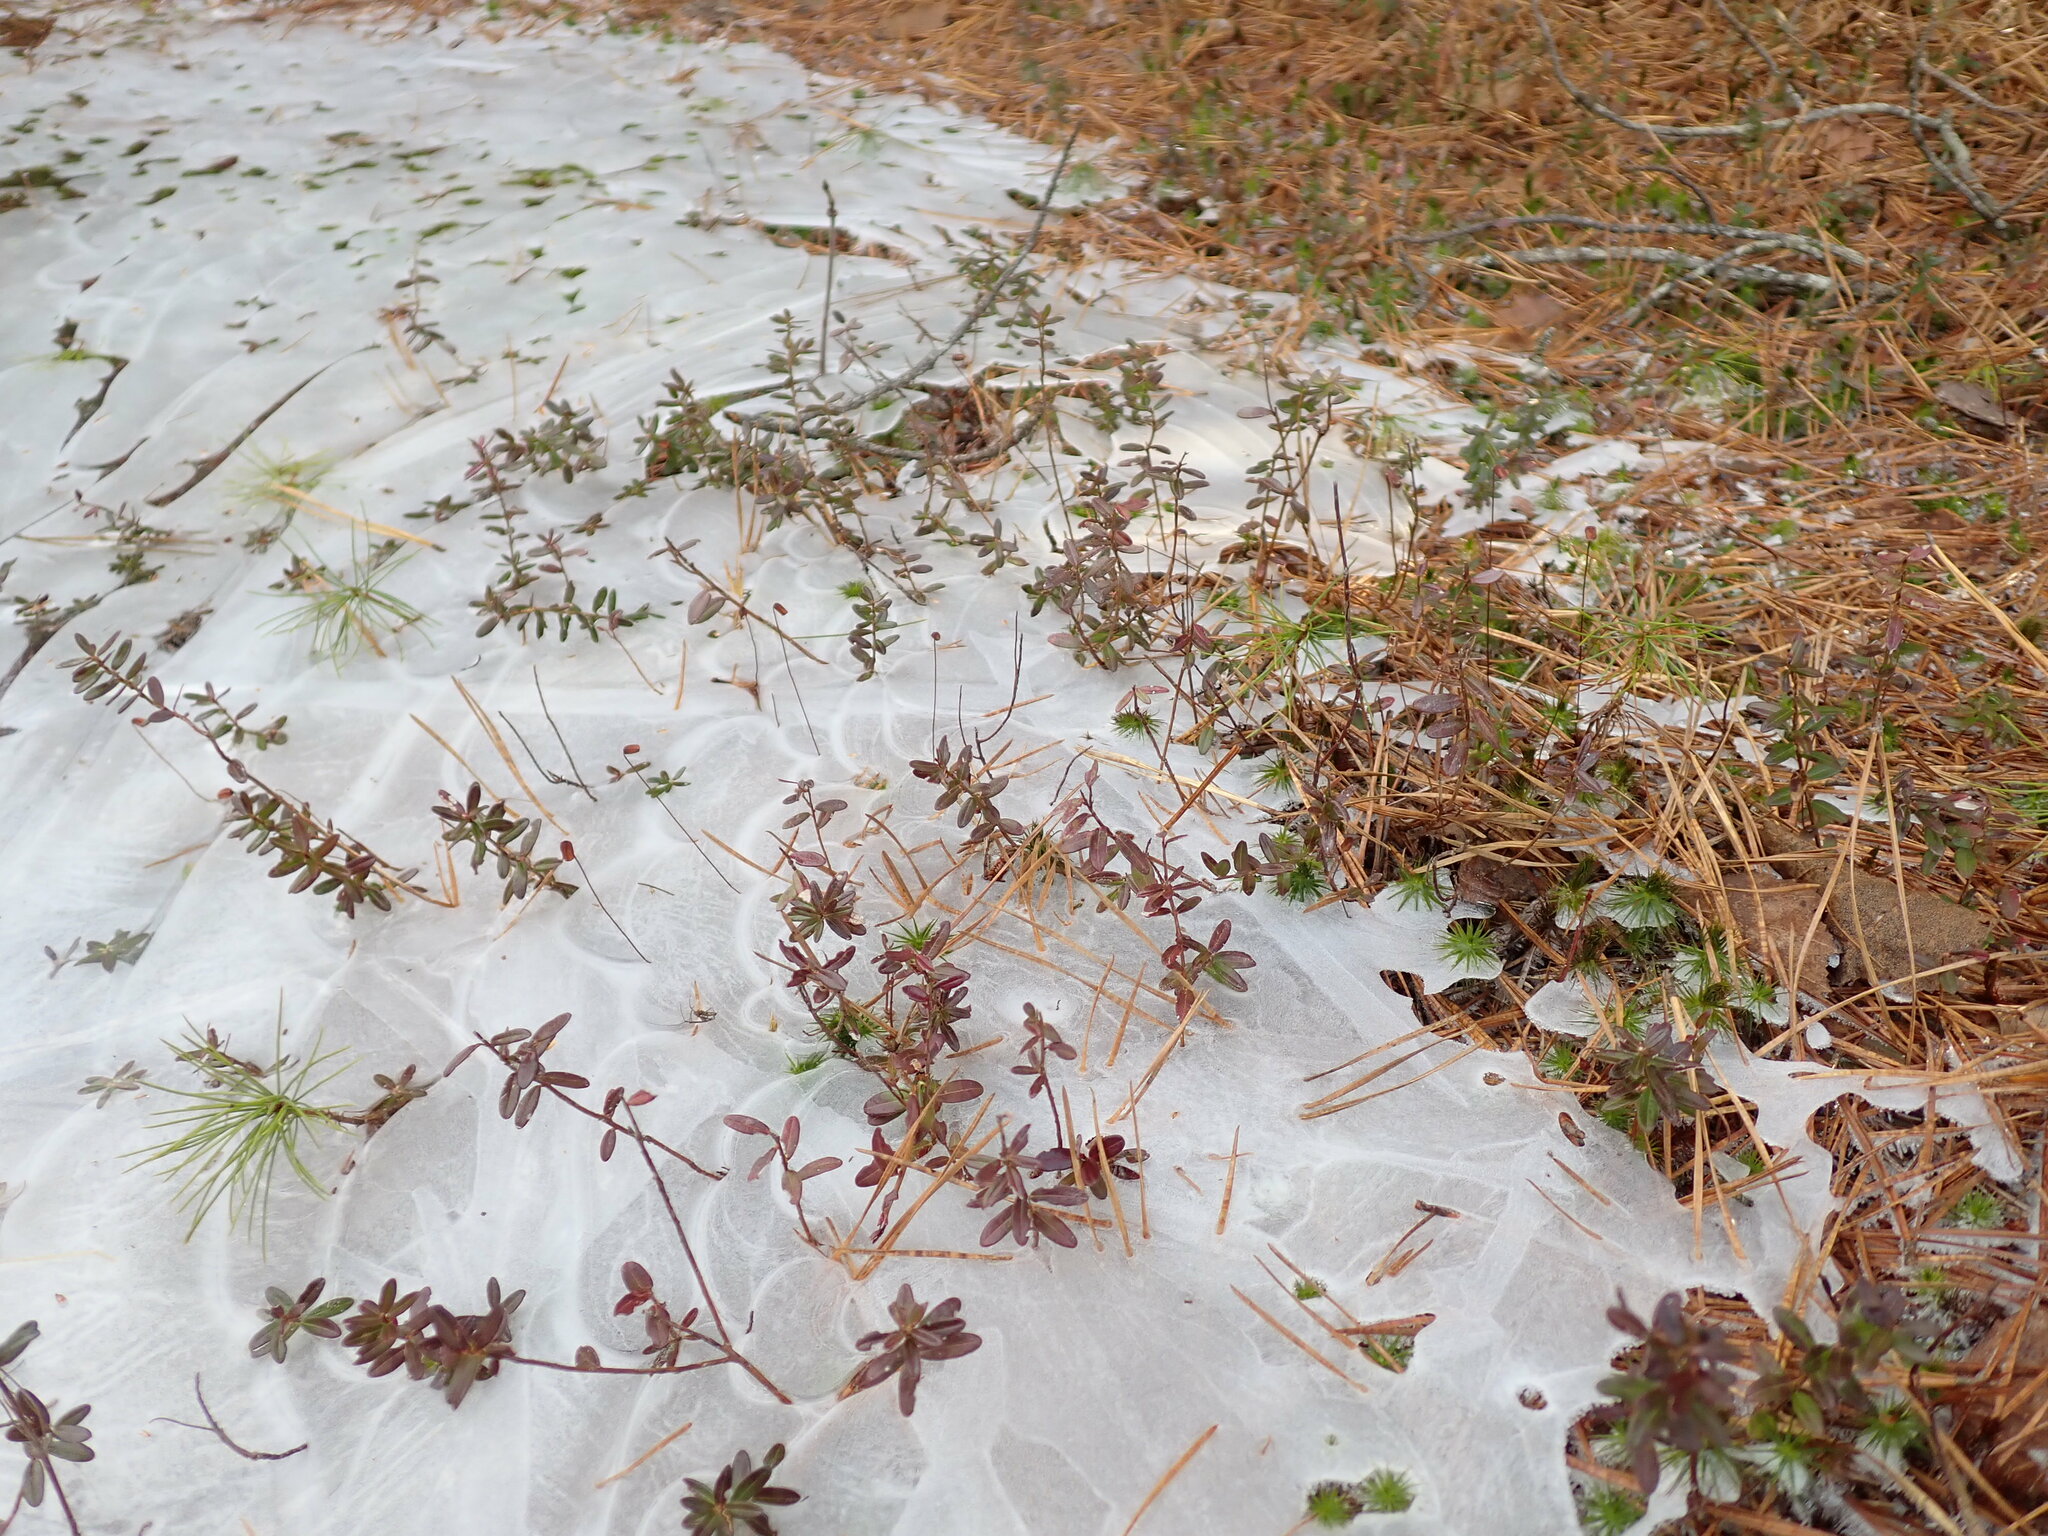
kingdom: Plantae
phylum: Tracheophyta
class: Magnoliopsida
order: Ericales
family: Ericaceae
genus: Vaccinium
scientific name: Vaccinium macrocarpon
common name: American cranberry
